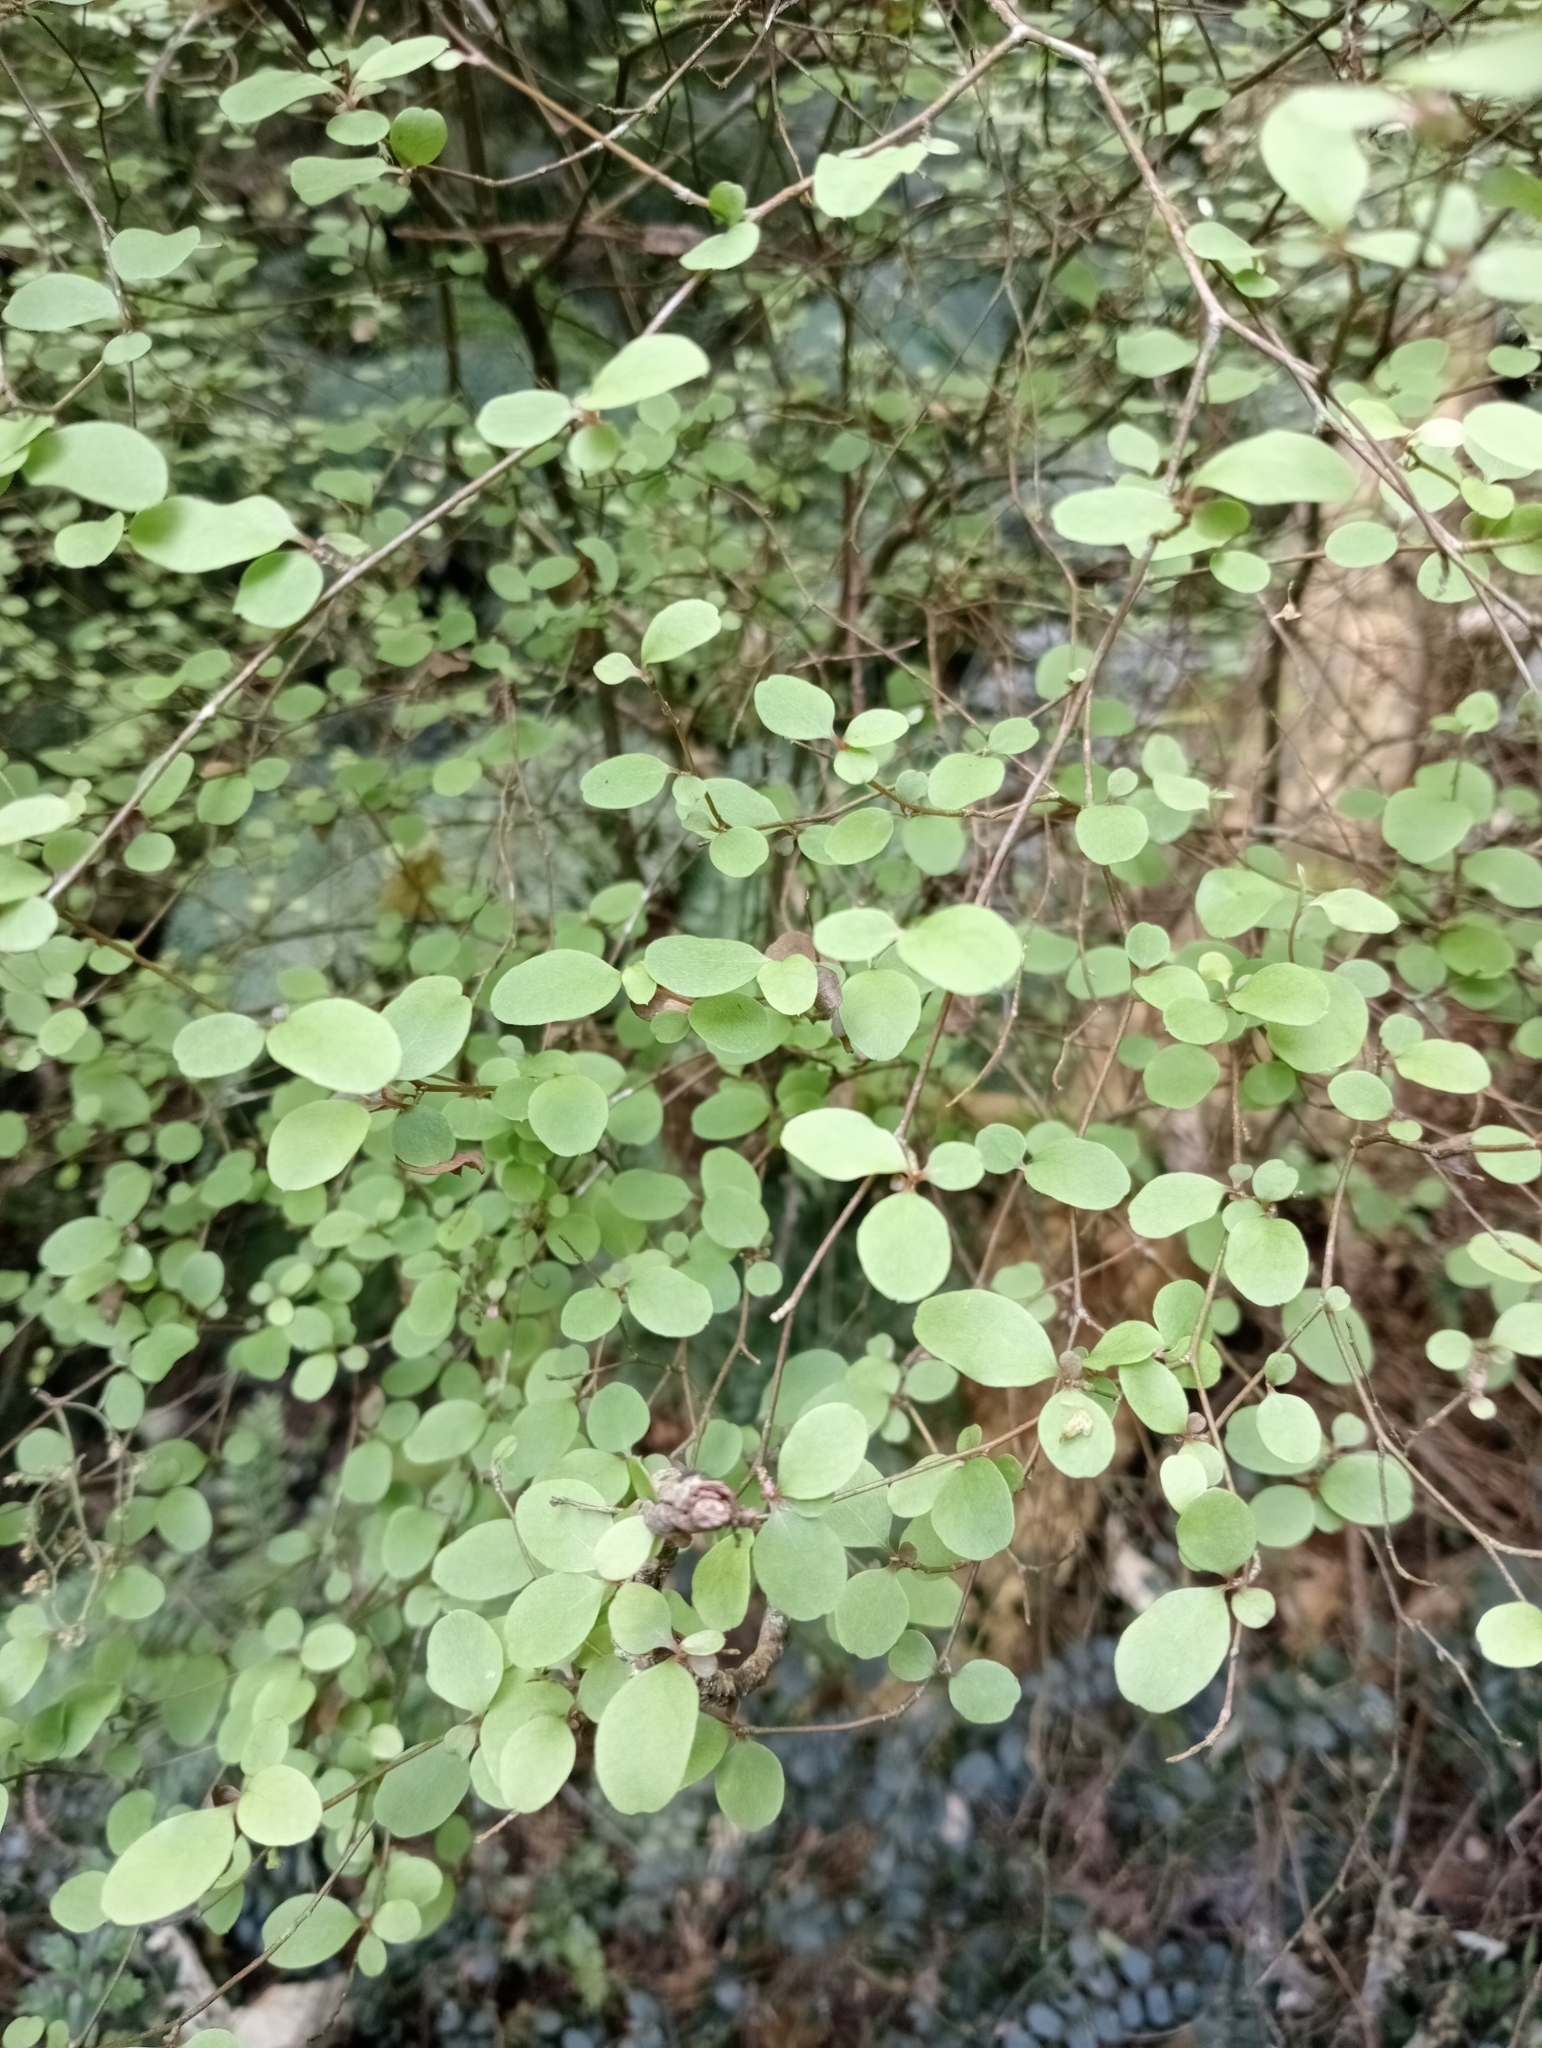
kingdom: Plantae
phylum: Tracheophyta
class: Magnoliopsida
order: Asterales
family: Asteraceae
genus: Olearia
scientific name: Olearia fragrantissima
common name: Fragrant tree daisy
